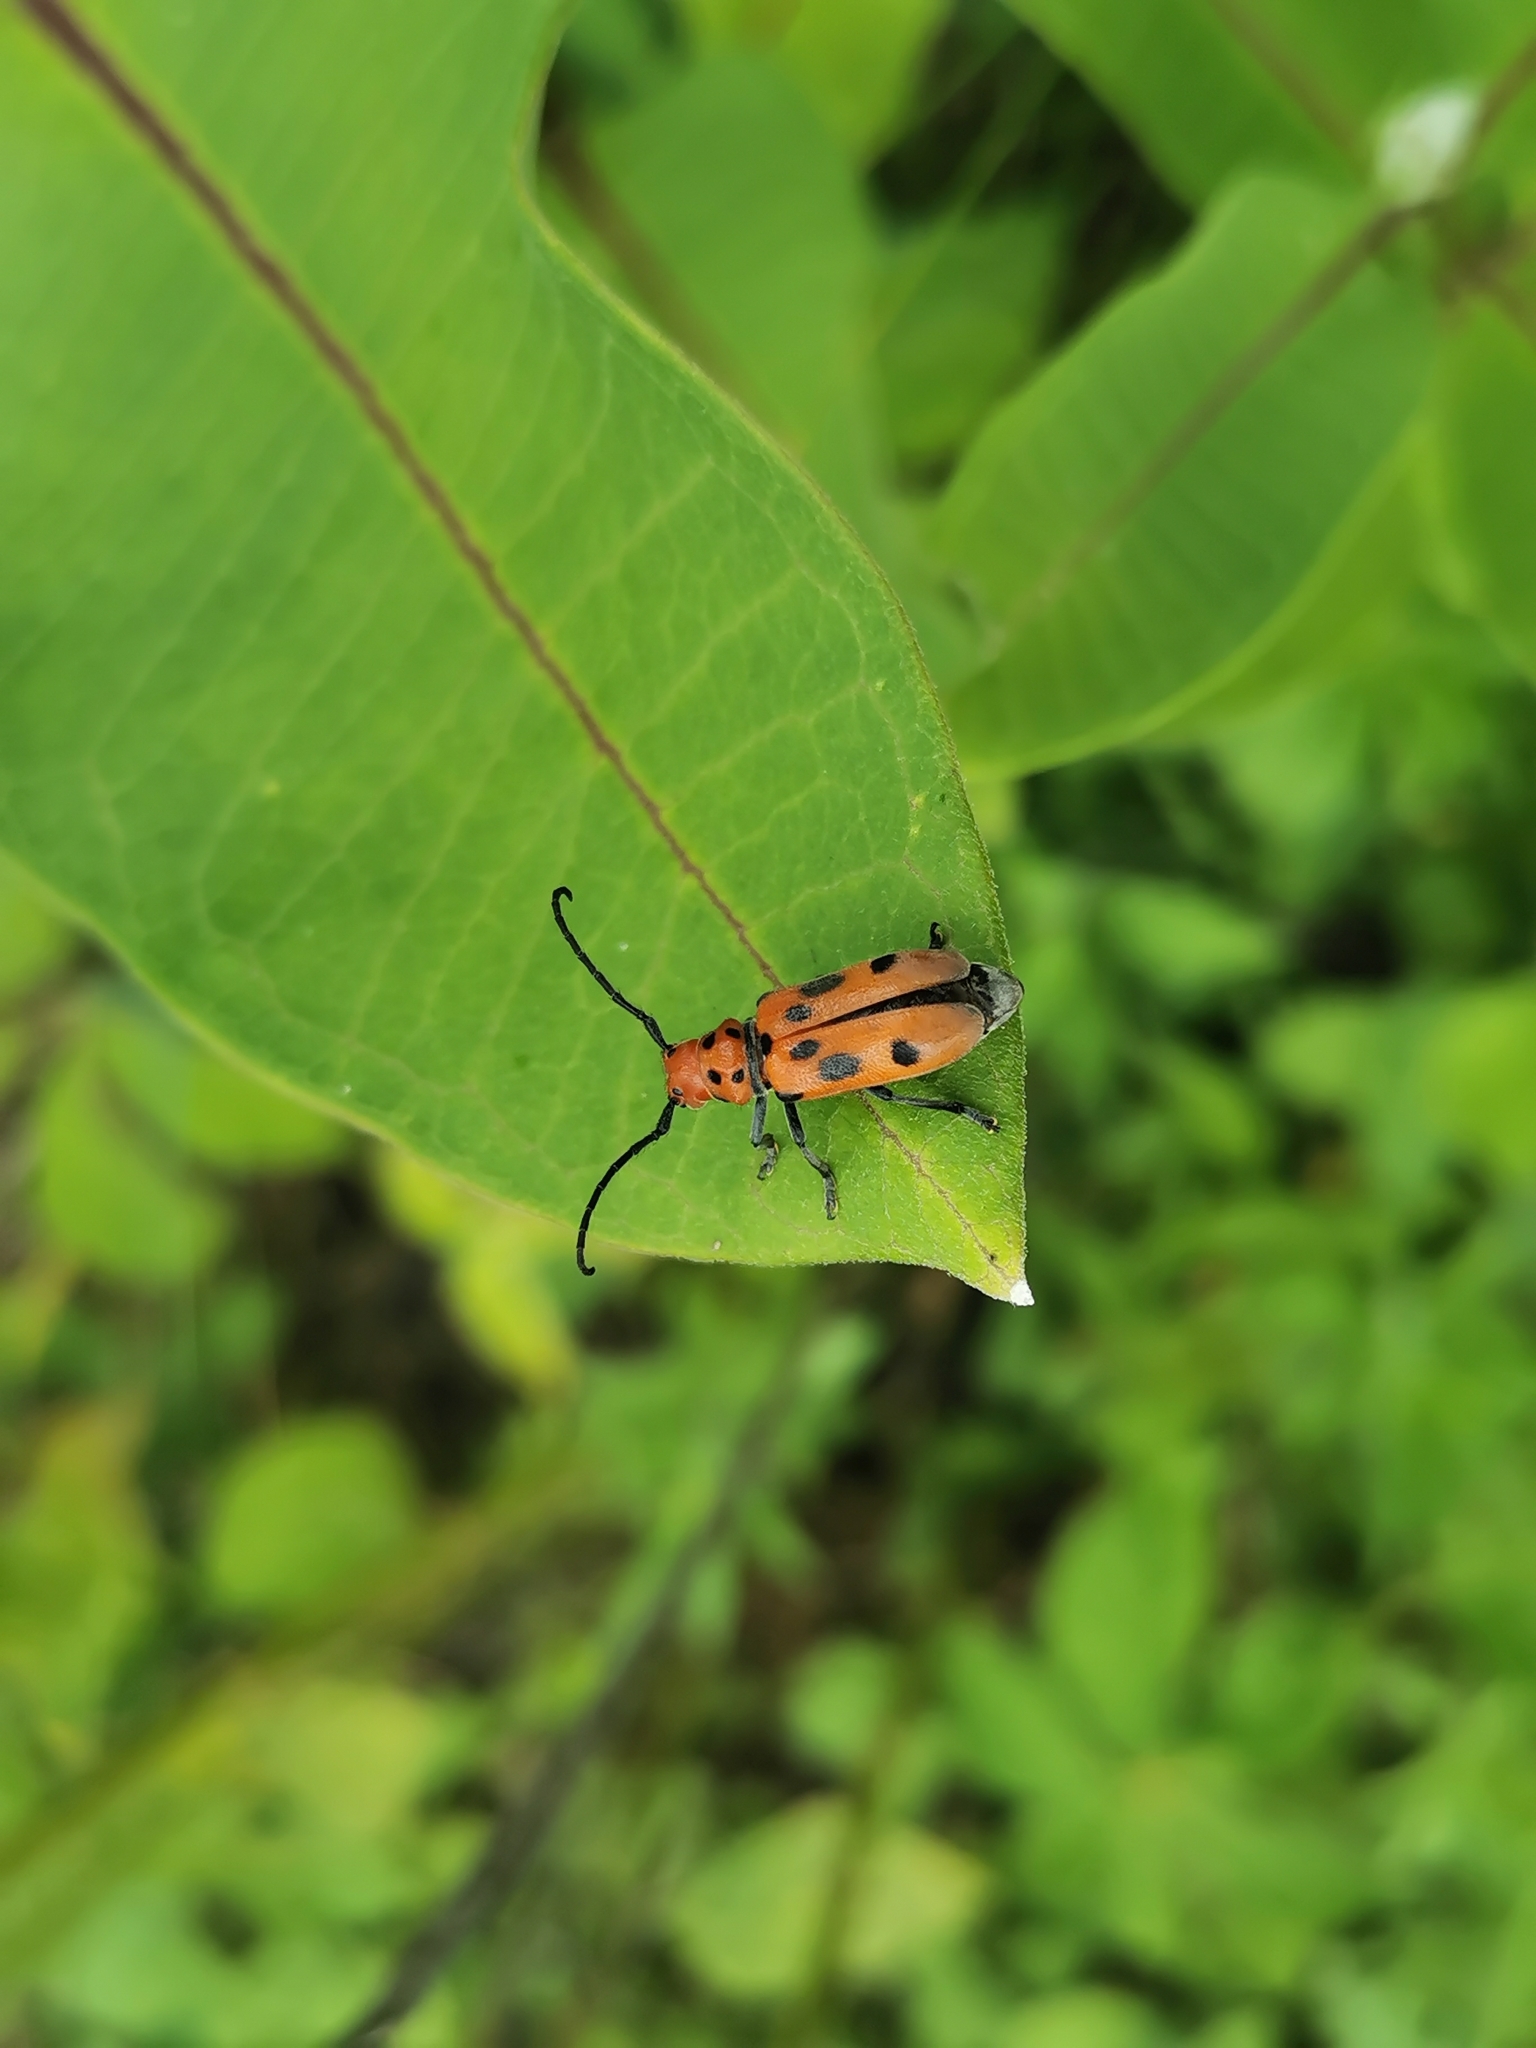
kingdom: Animalia
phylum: Arthropoda
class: Insecta
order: Coleoptera
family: Cerambycidae
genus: Tetraopes
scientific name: Tetraopes tetrophthalmus
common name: Red milkweed beetle
